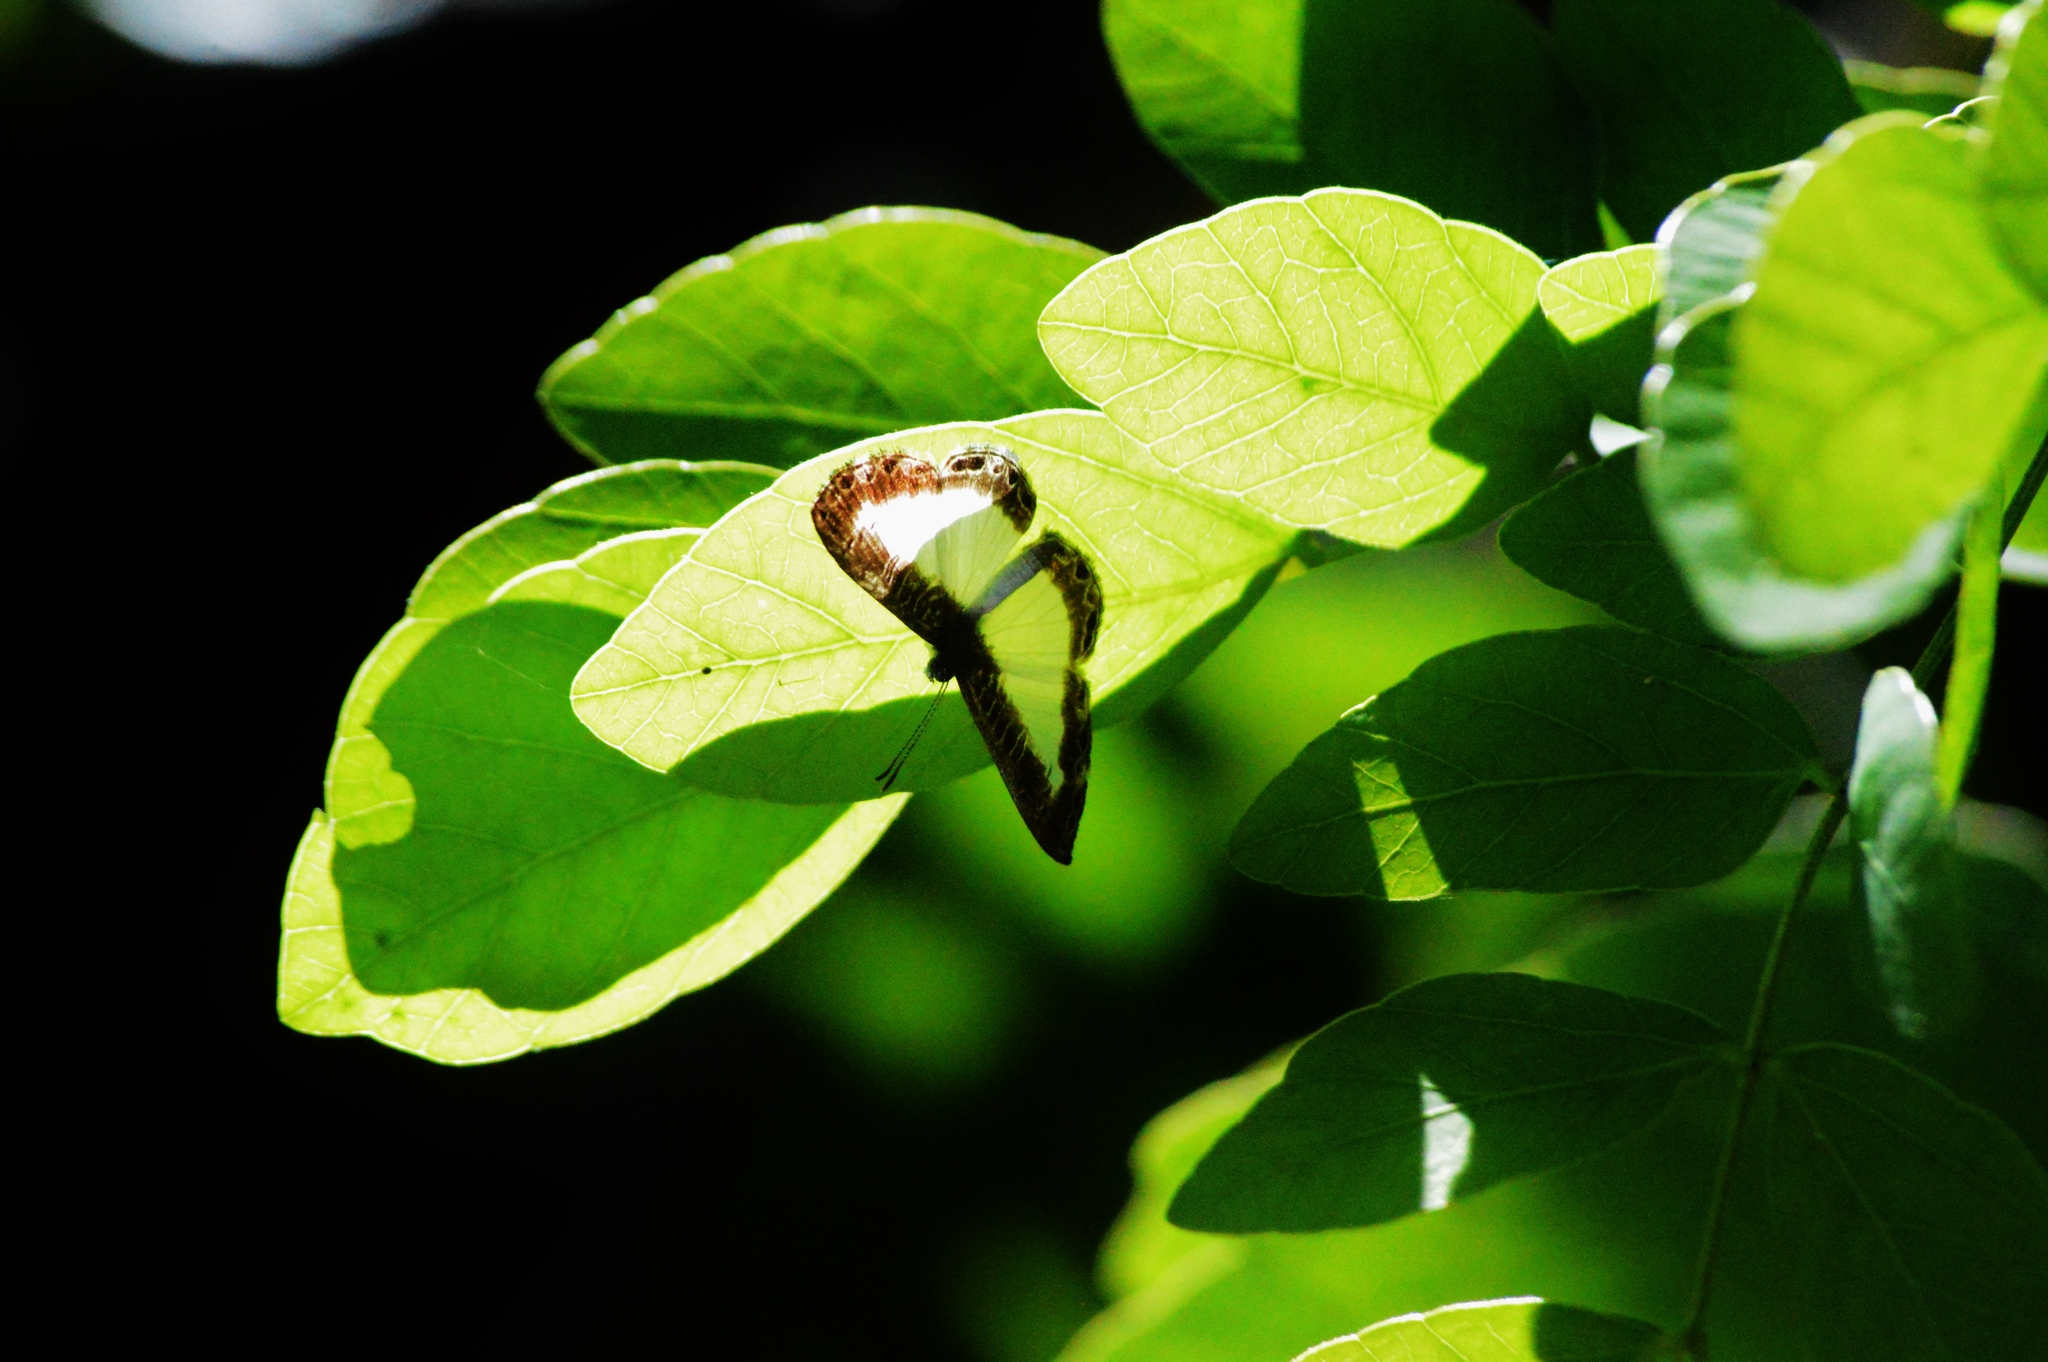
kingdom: Animalia
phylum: Arthropoda
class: Insecta
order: Lepidoptera
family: Riodinidae
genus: Juditha
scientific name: Juditha lamis
